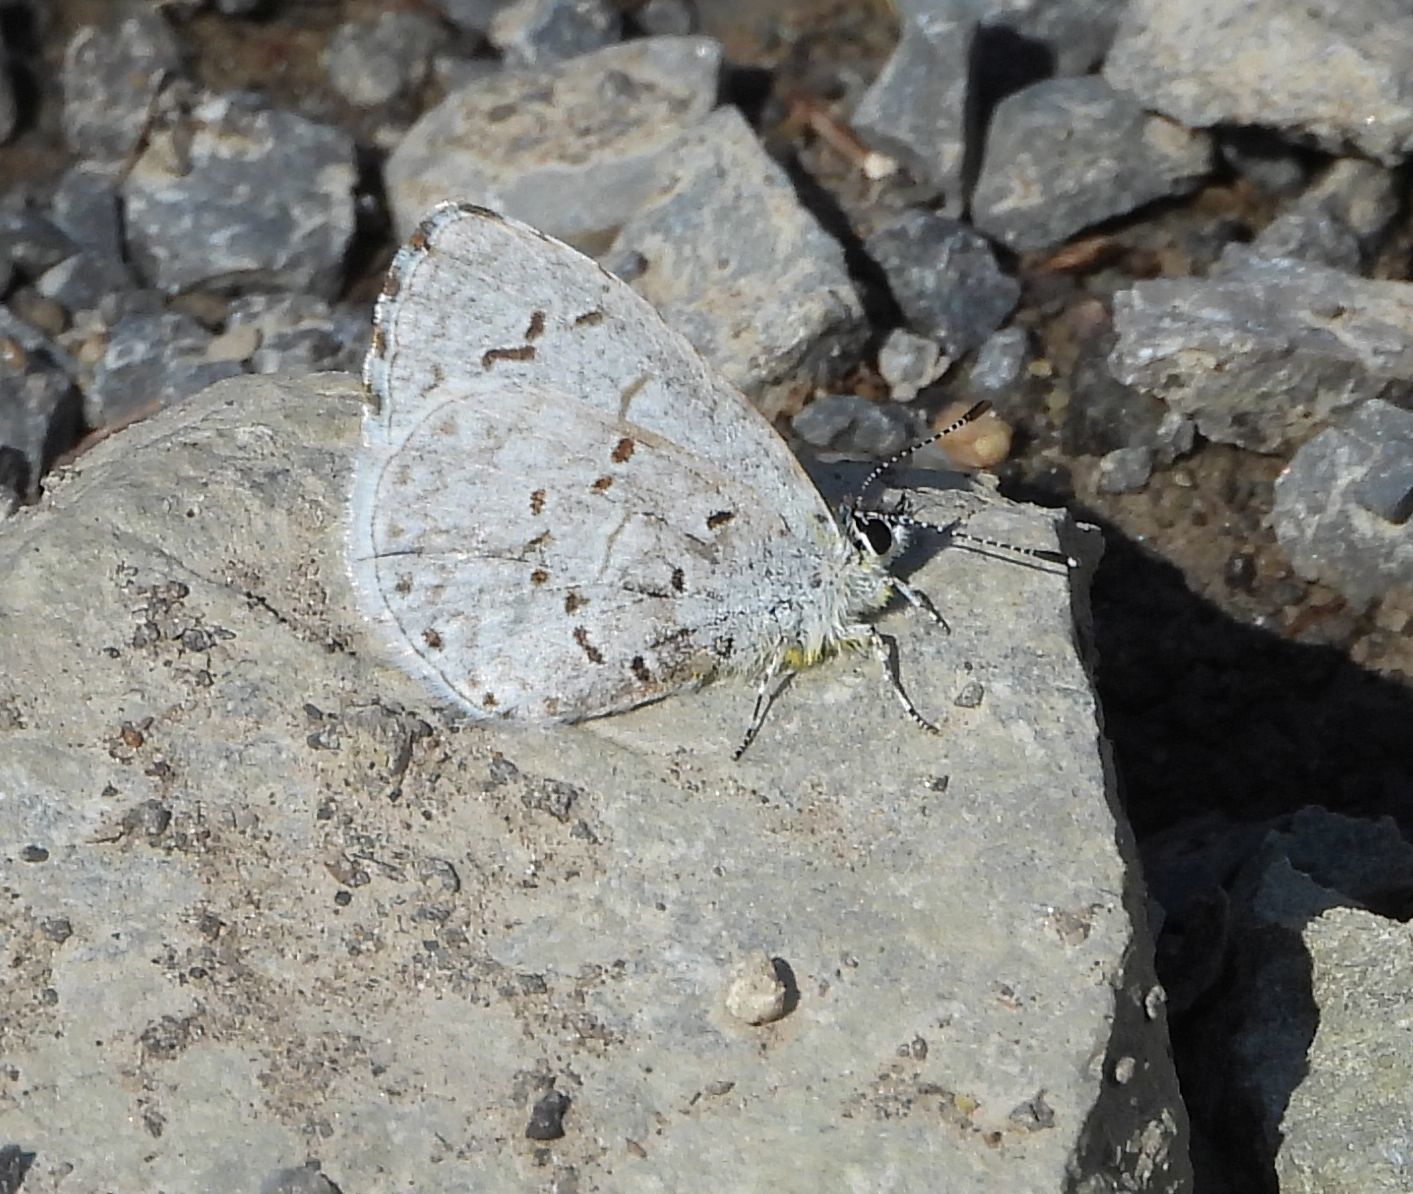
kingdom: Animalia
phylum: Arthropoda
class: Insecta
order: Lepidoptera
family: Lycaenidae
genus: Celastrina
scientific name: Celastrina lucia
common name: Lucia azure
